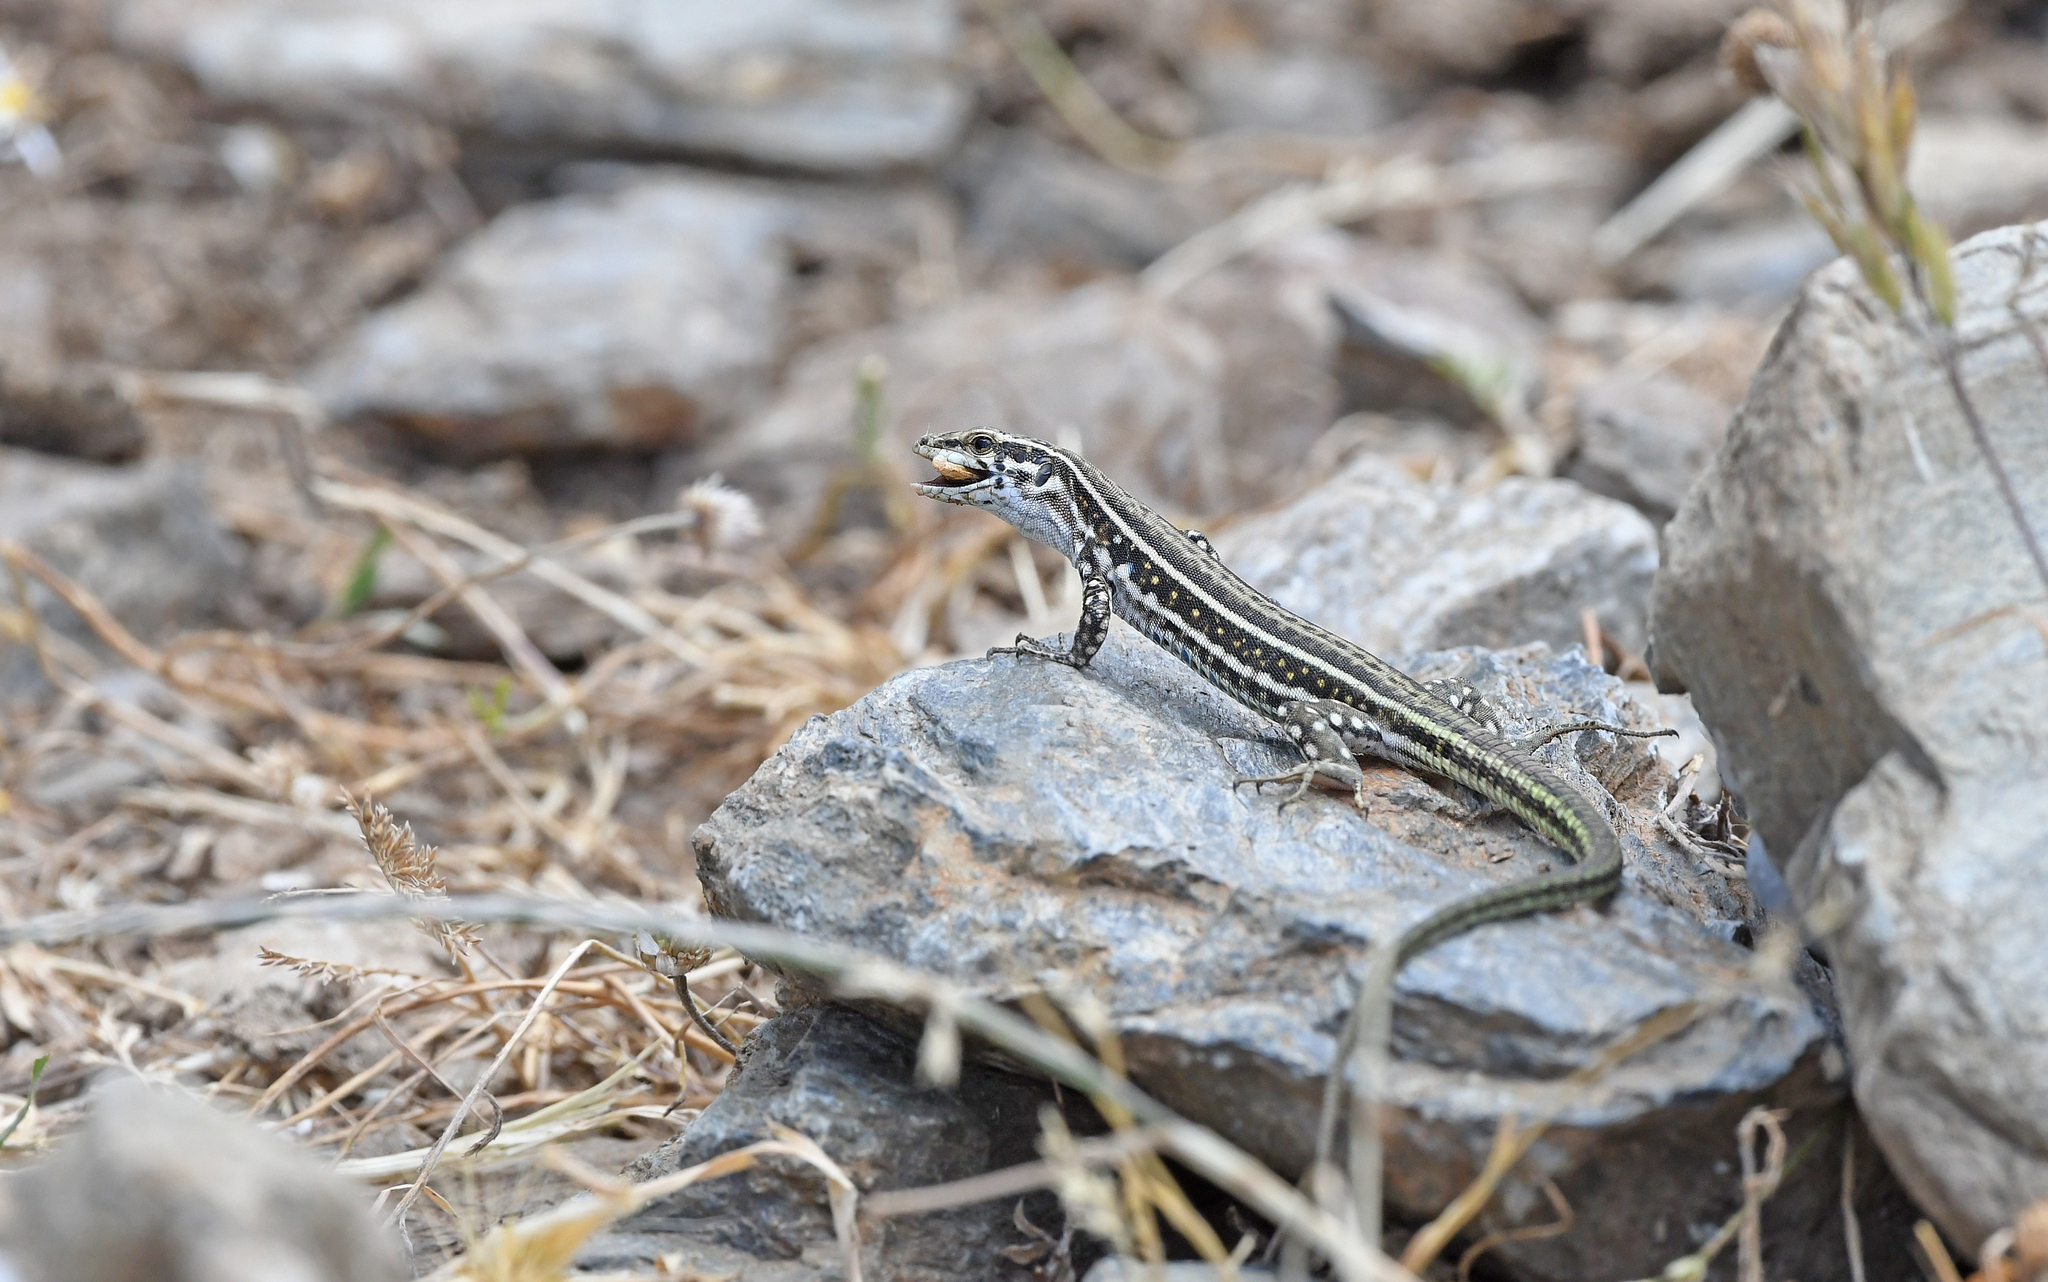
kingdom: Animalia
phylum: Chordata
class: Squamata
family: Lacertidae
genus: Podarcis
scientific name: Podarcis tiliguerta
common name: Tyrrhenian wall lizard
